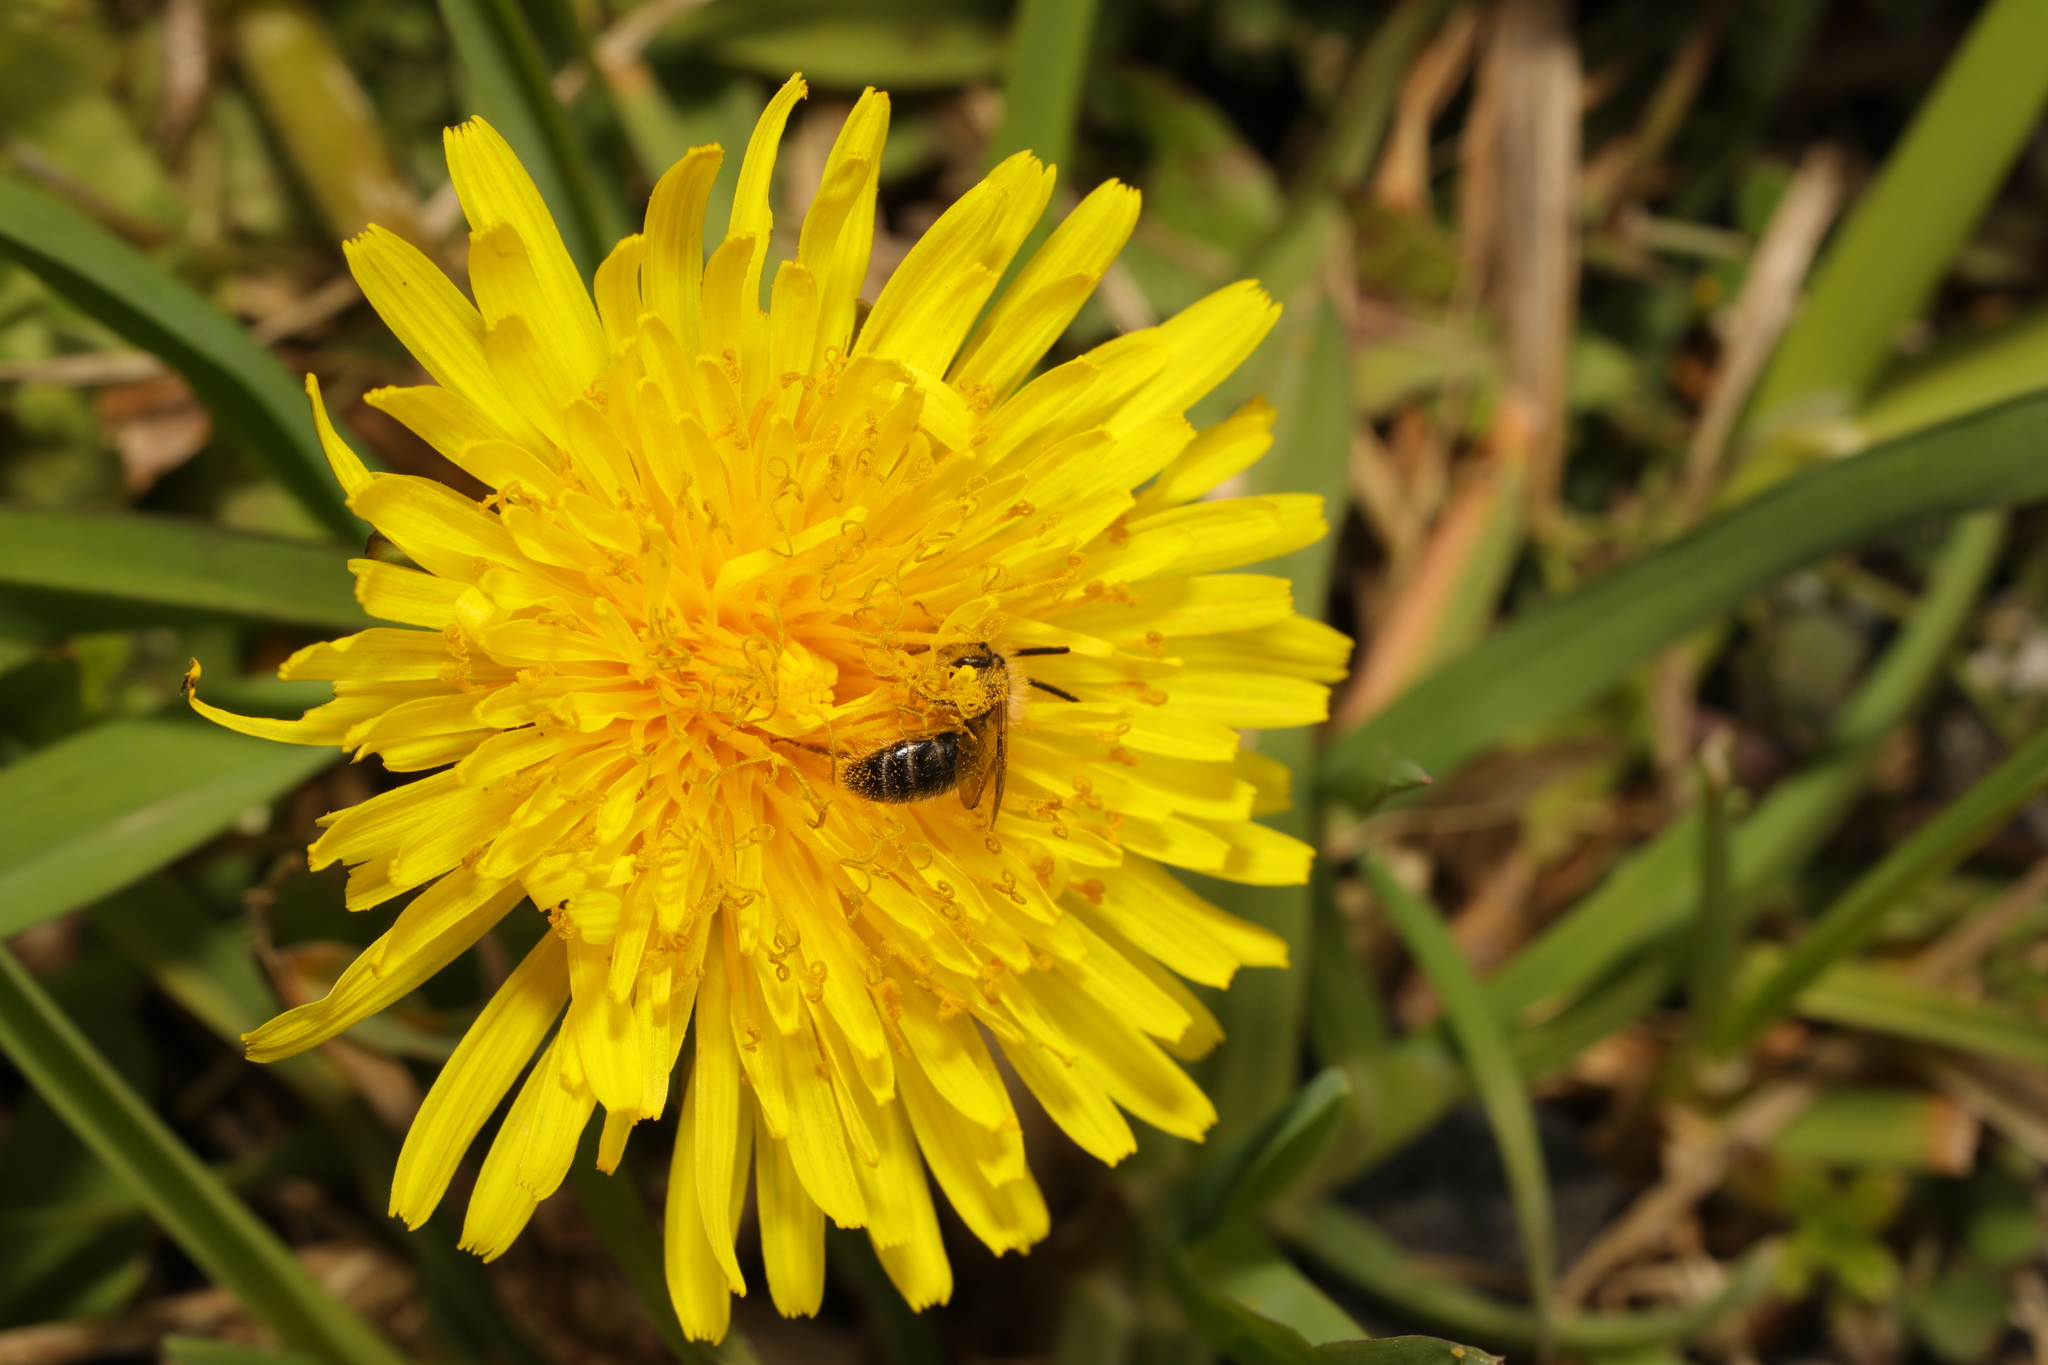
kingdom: Animalia
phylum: Arthropoda
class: Insecta
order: Hymenoptera
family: Apidae
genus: Apis
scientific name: Apis mellifera
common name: Honey bee
